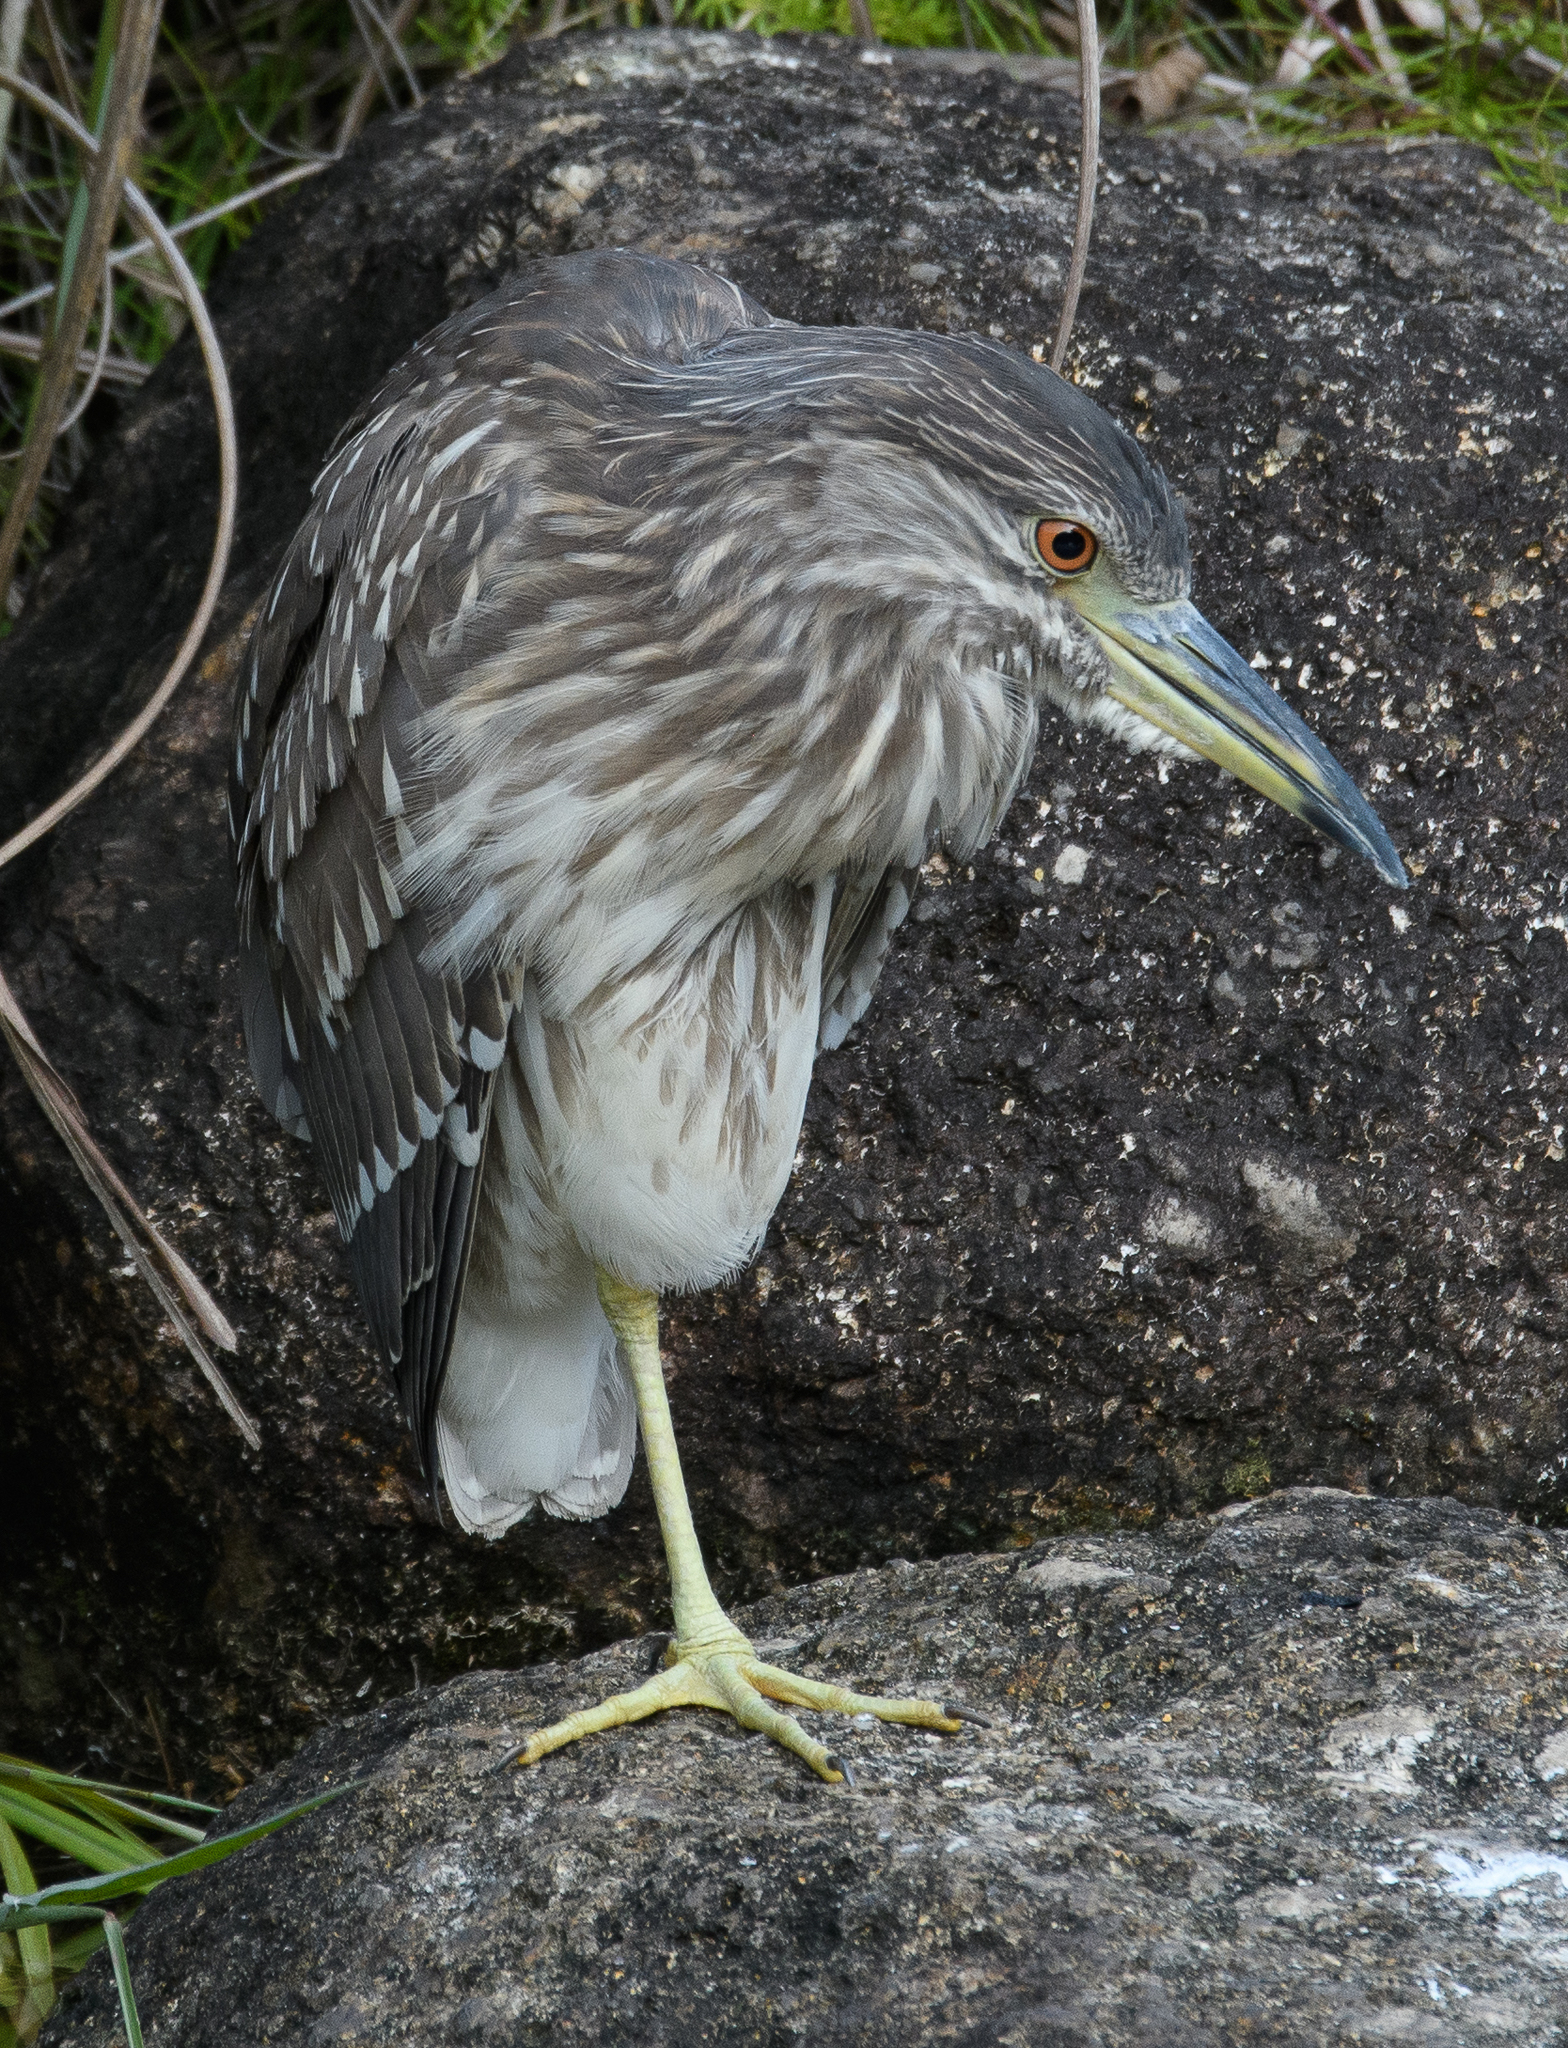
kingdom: Animalia
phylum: Chordata
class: Aves
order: Pelecaniformes
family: Ardeidae
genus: Nycticorax
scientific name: Nycticorax nycticorax
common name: Black-crowned night heron
